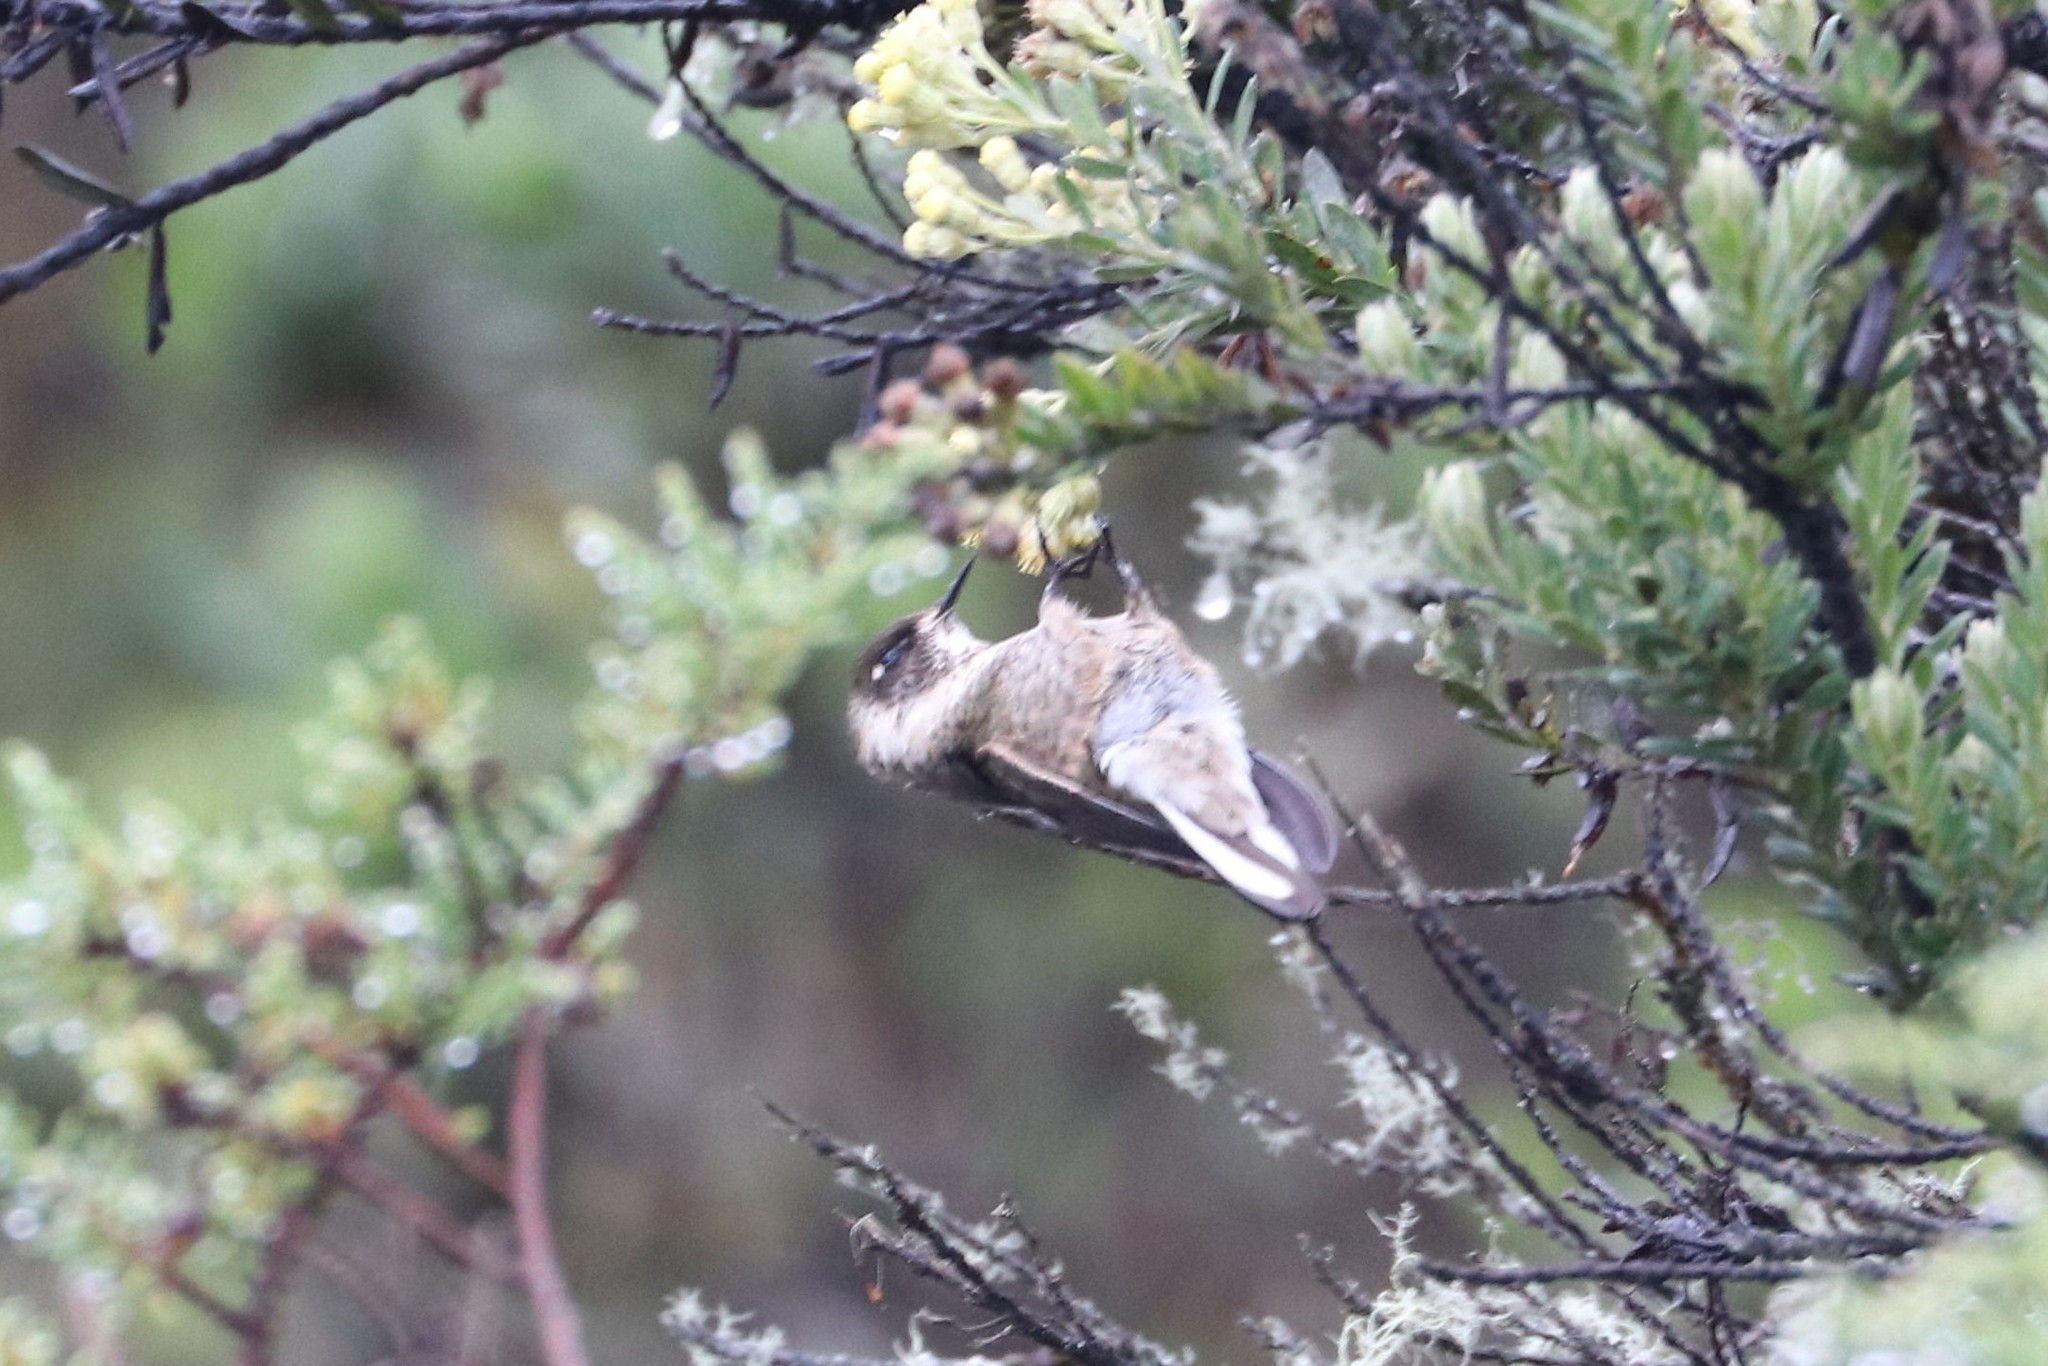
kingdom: Animalia
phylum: Chordata
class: Aves
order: Apodiformes
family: Trochilidae
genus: Oxypogon
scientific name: Oxypogon guerinii
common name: Bearded helmetcrest
